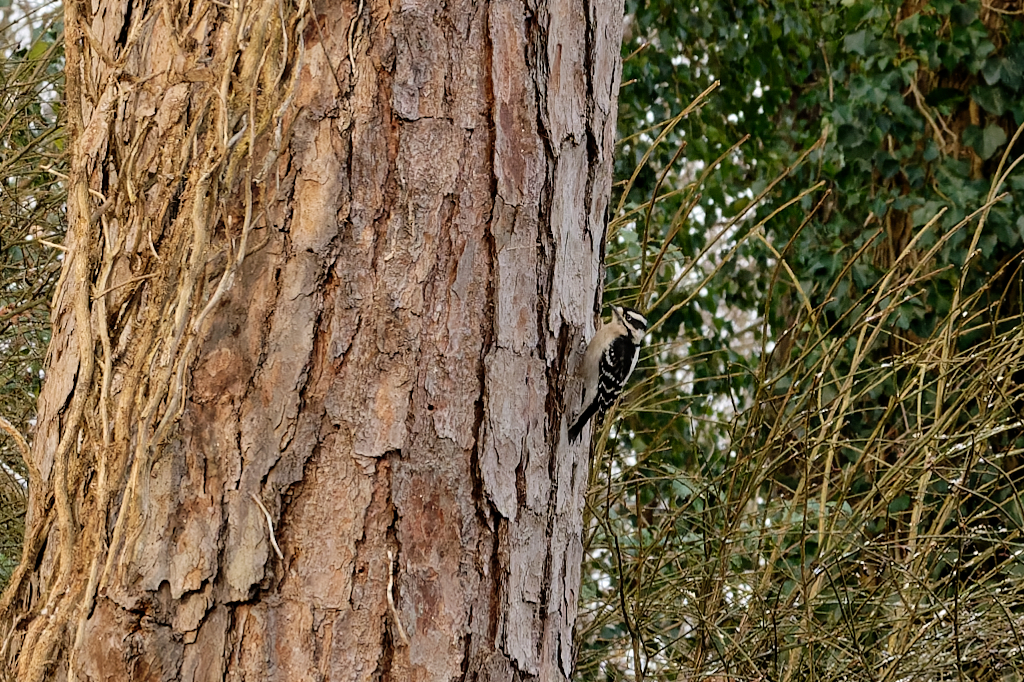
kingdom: Animalia
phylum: Chordata
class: Aves
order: Piciformes
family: Picidae
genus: Dryobates
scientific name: Dryobates pubescens
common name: Downy woodpecker
